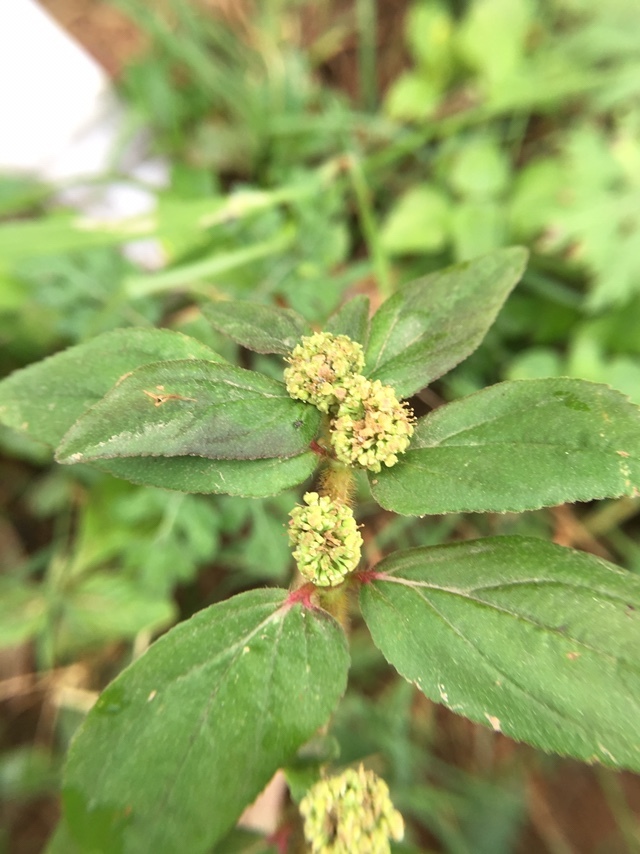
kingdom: Plantae
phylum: Tracheophyta
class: Magnoliopsida
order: Malpighiales
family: Euphorbiaceae
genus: Euphorbia
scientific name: Euphorbia hirta
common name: Pillpod sandmat
